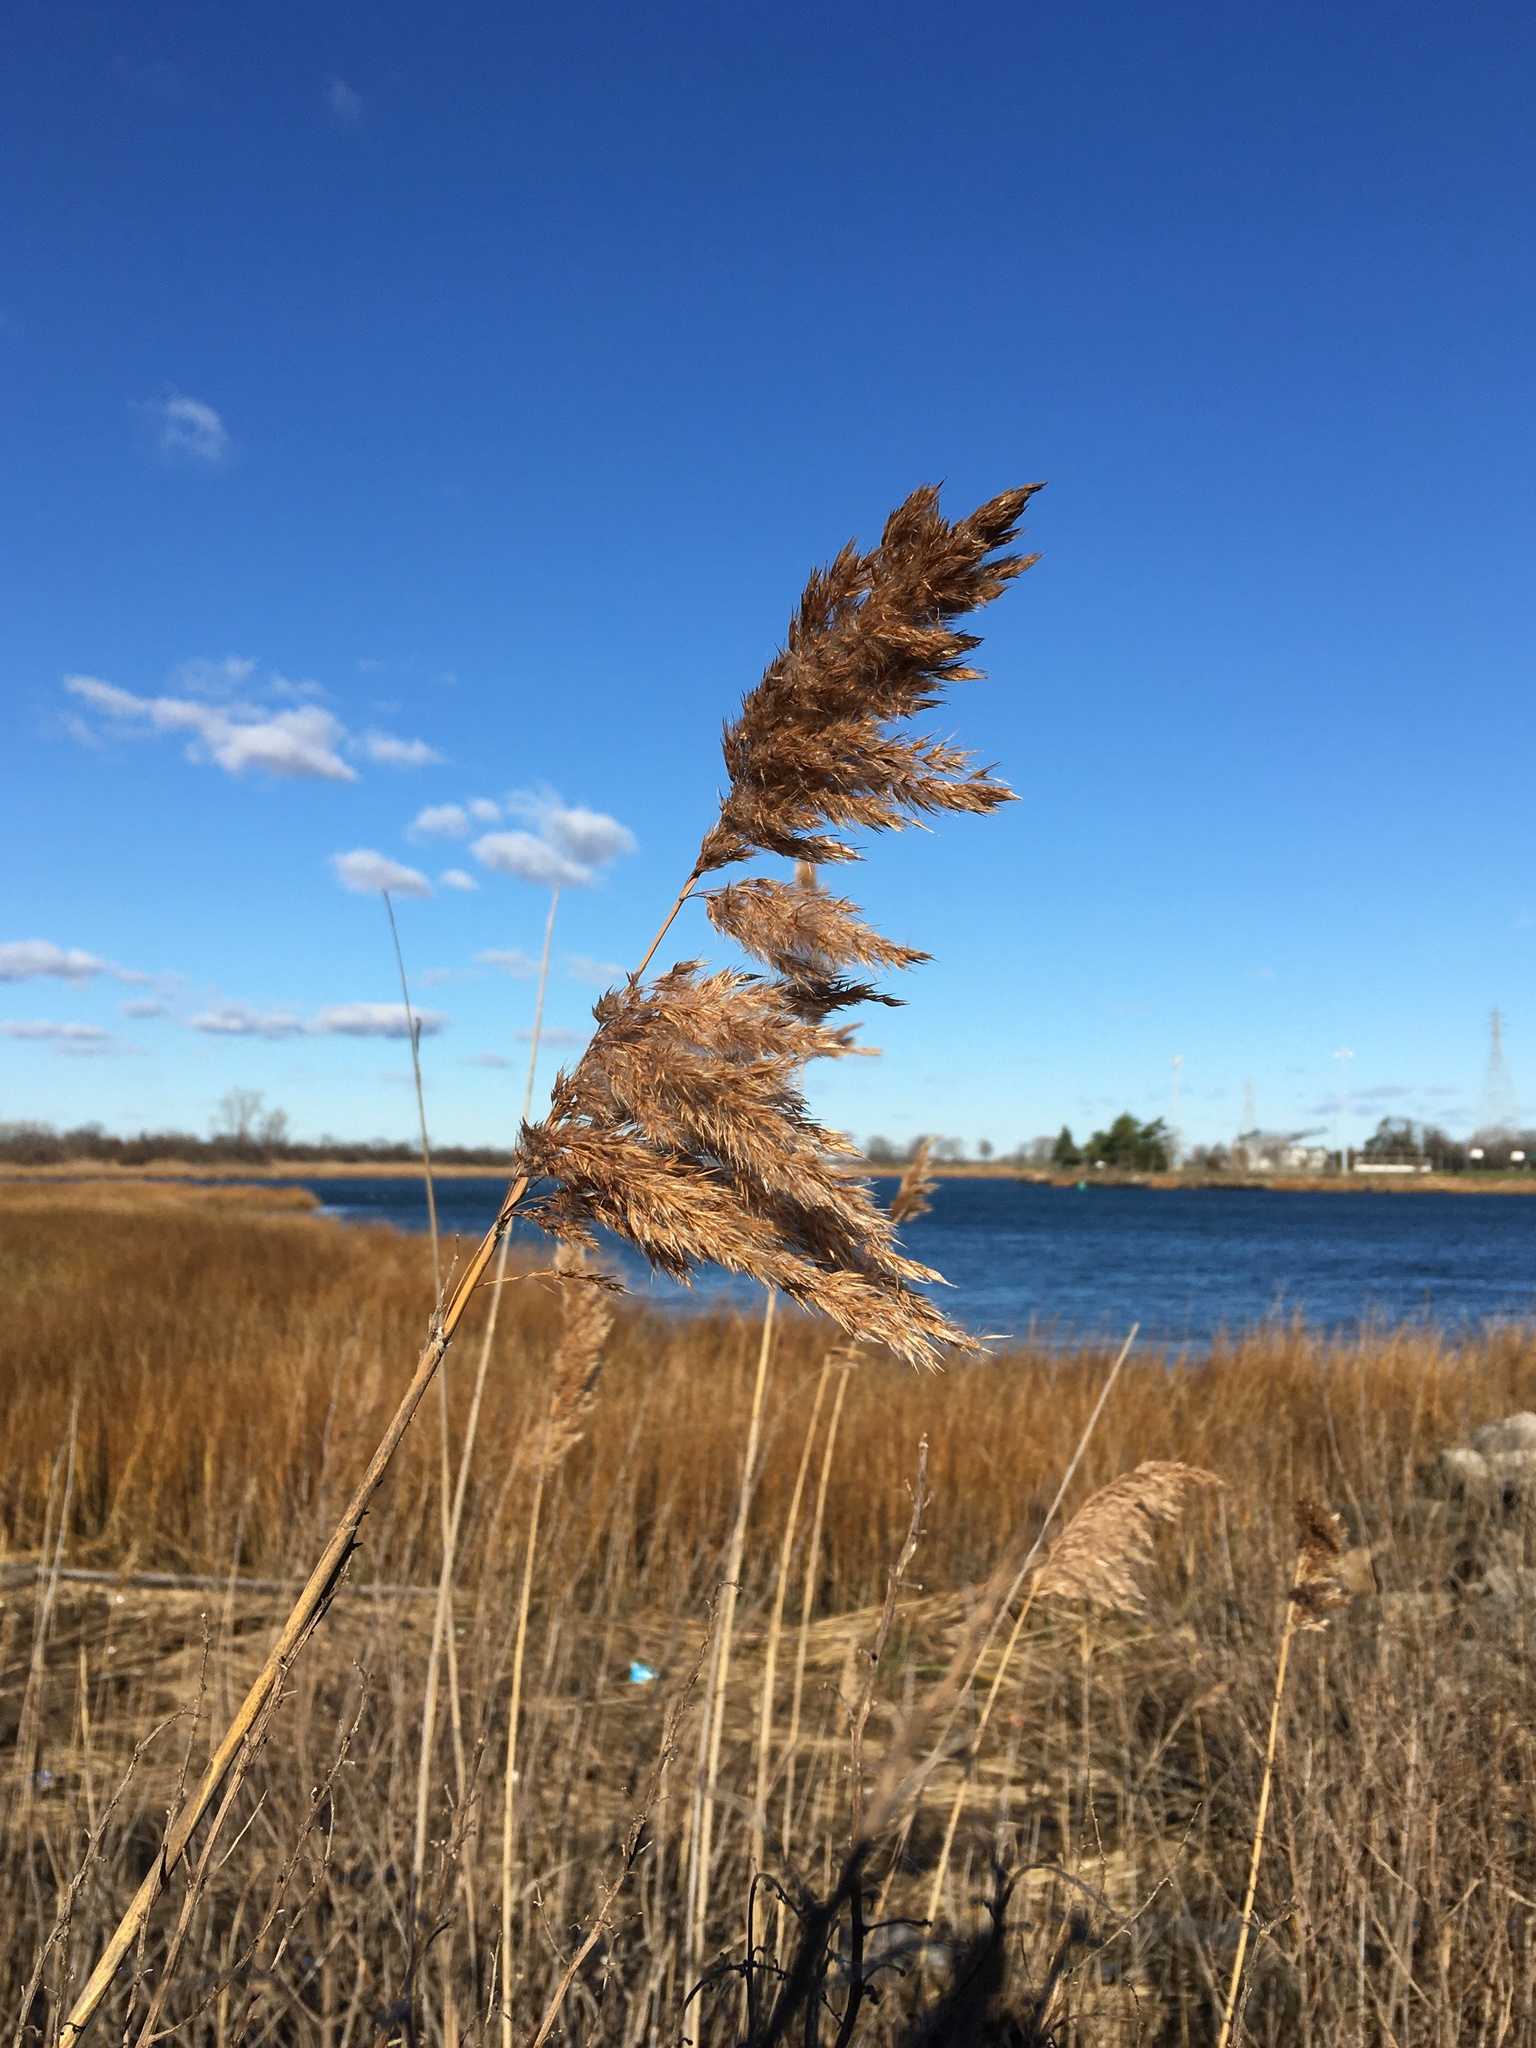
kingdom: Plantae
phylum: Tracheophyta
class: Liliopsida
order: Poales
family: Poaceae
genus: Phragmites
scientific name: Phragmites australis
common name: Common reed
